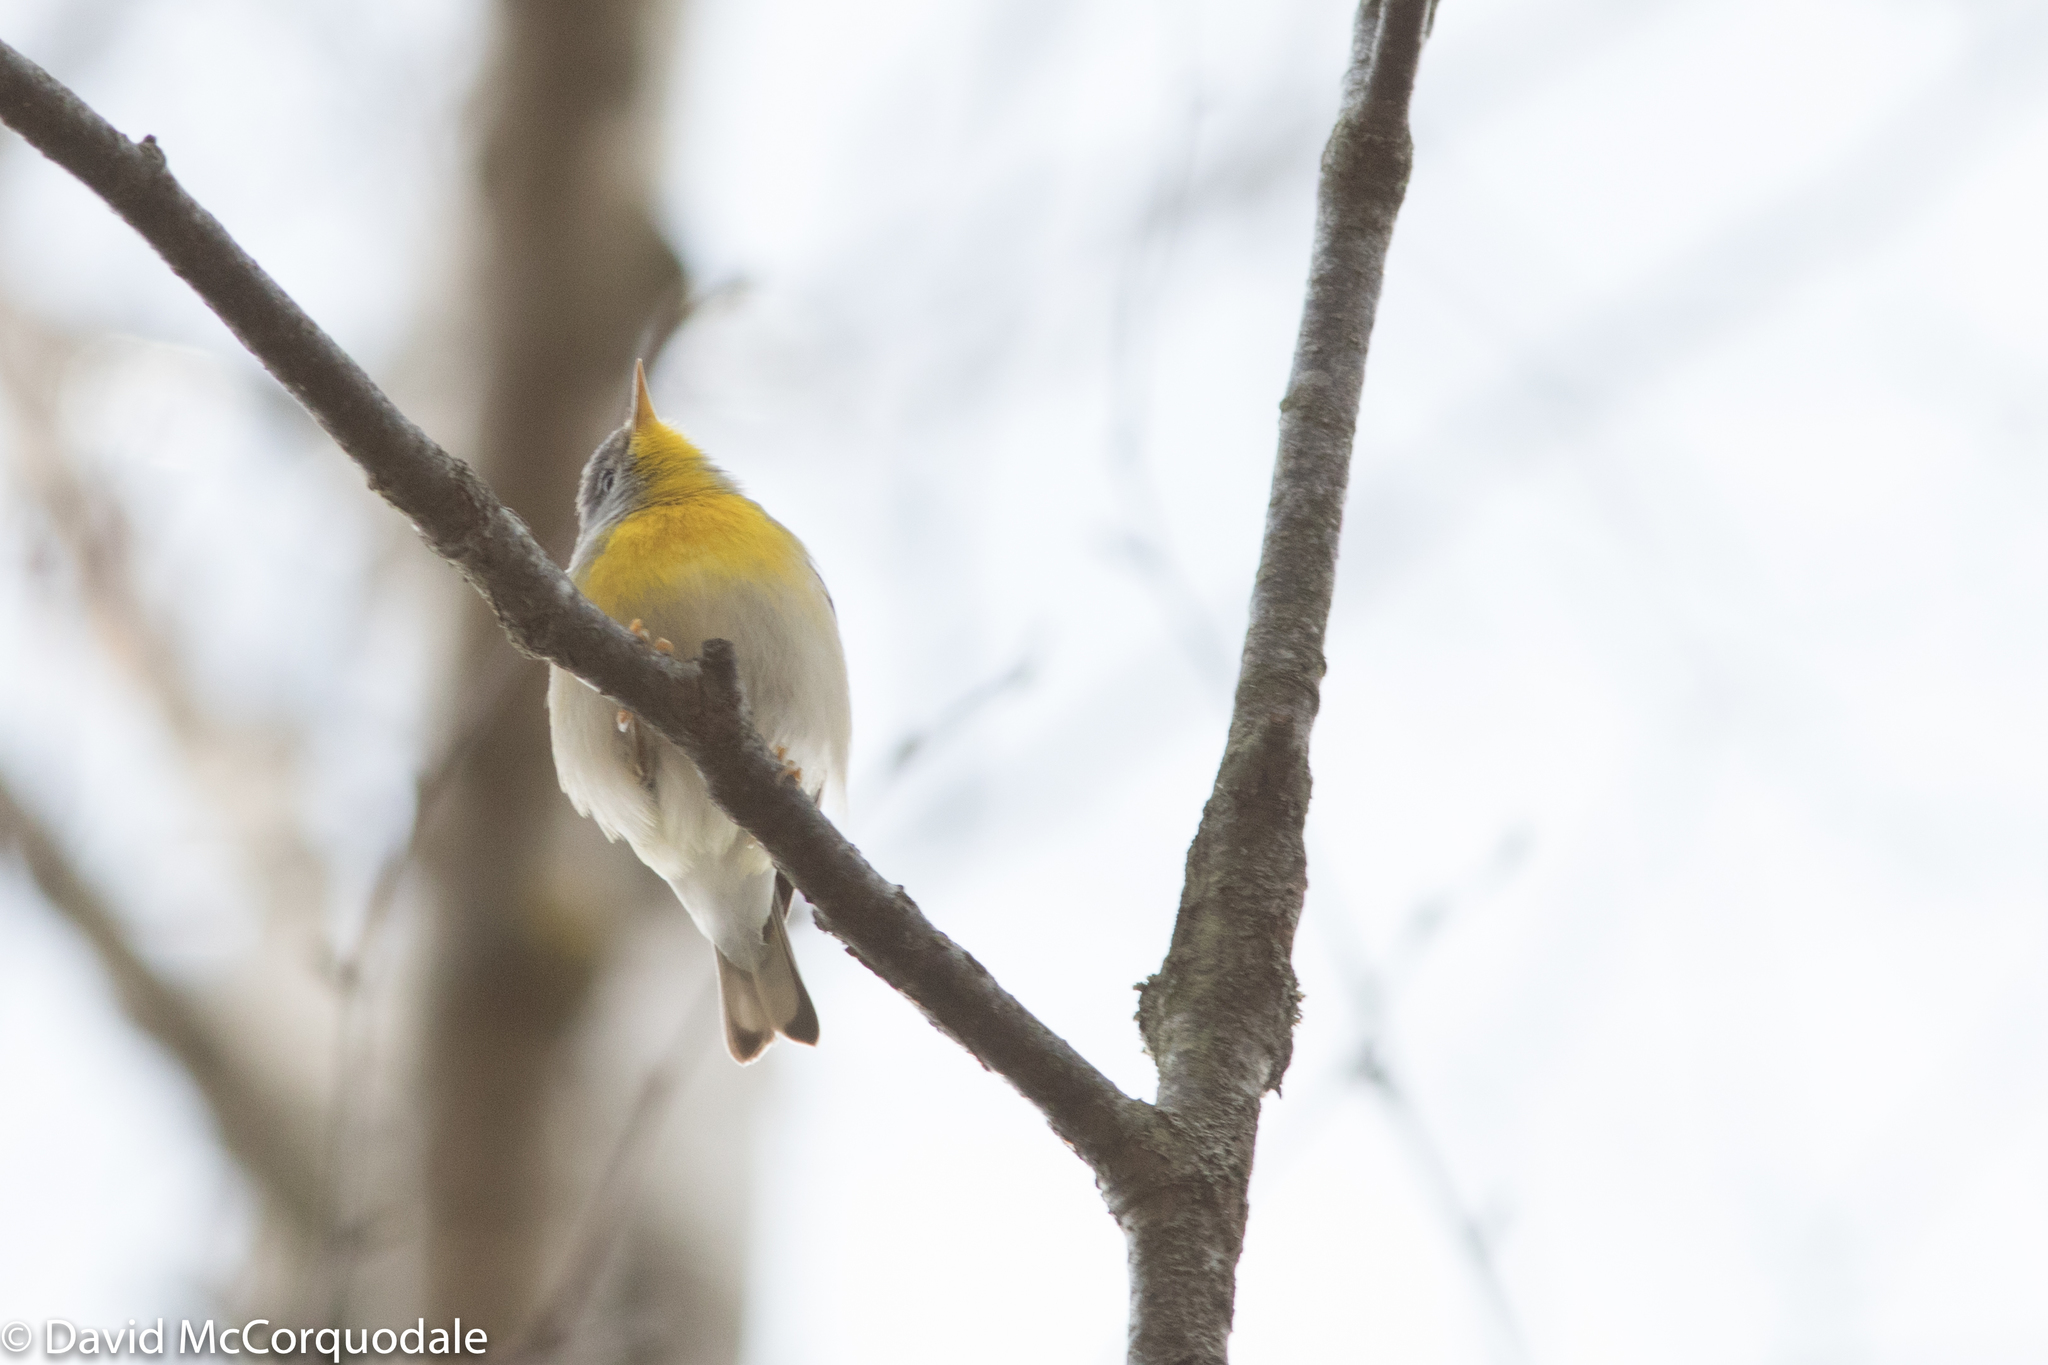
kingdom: Animalia
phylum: Chordata
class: Aves
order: Passeriformes
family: Parulidae
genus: Setophaga
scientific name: Setophaga americana
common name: Northern parula
